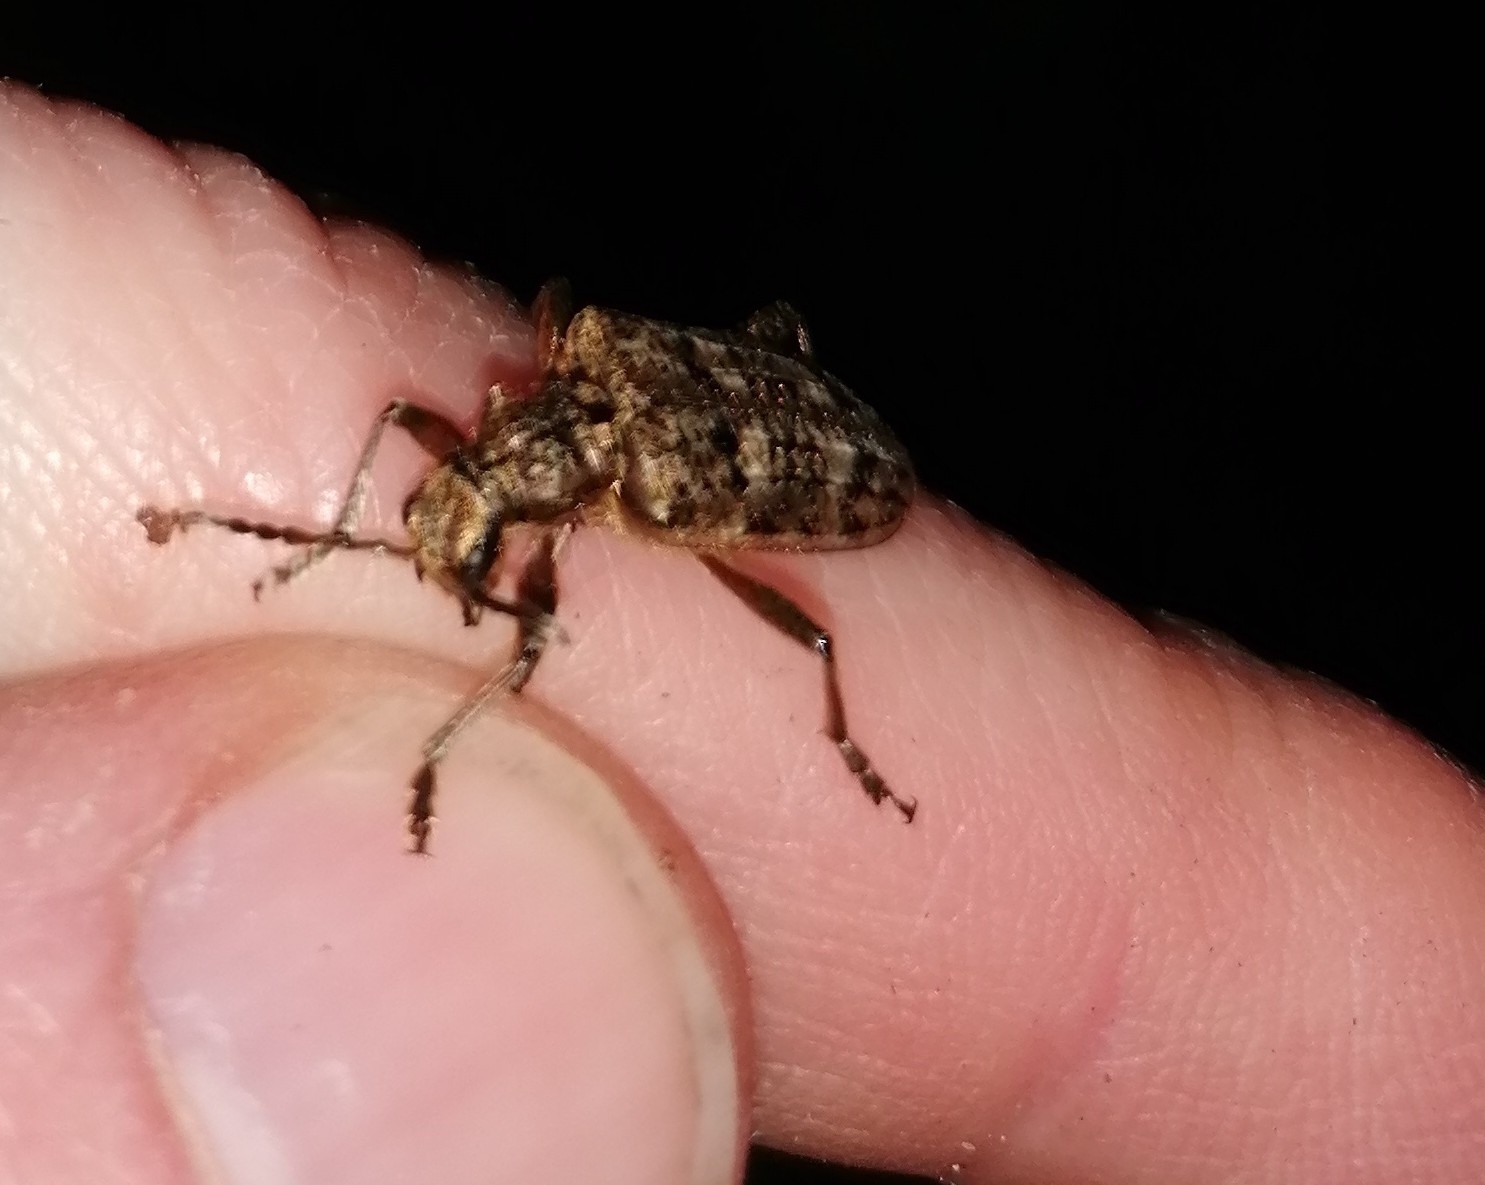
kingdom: Animalia
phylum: Arthropoda
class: Insecta
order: Coleoptera
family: Cerambycidae
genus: Rhagium
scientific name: Rhagium inquisitor
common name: Ribbed pine borer
